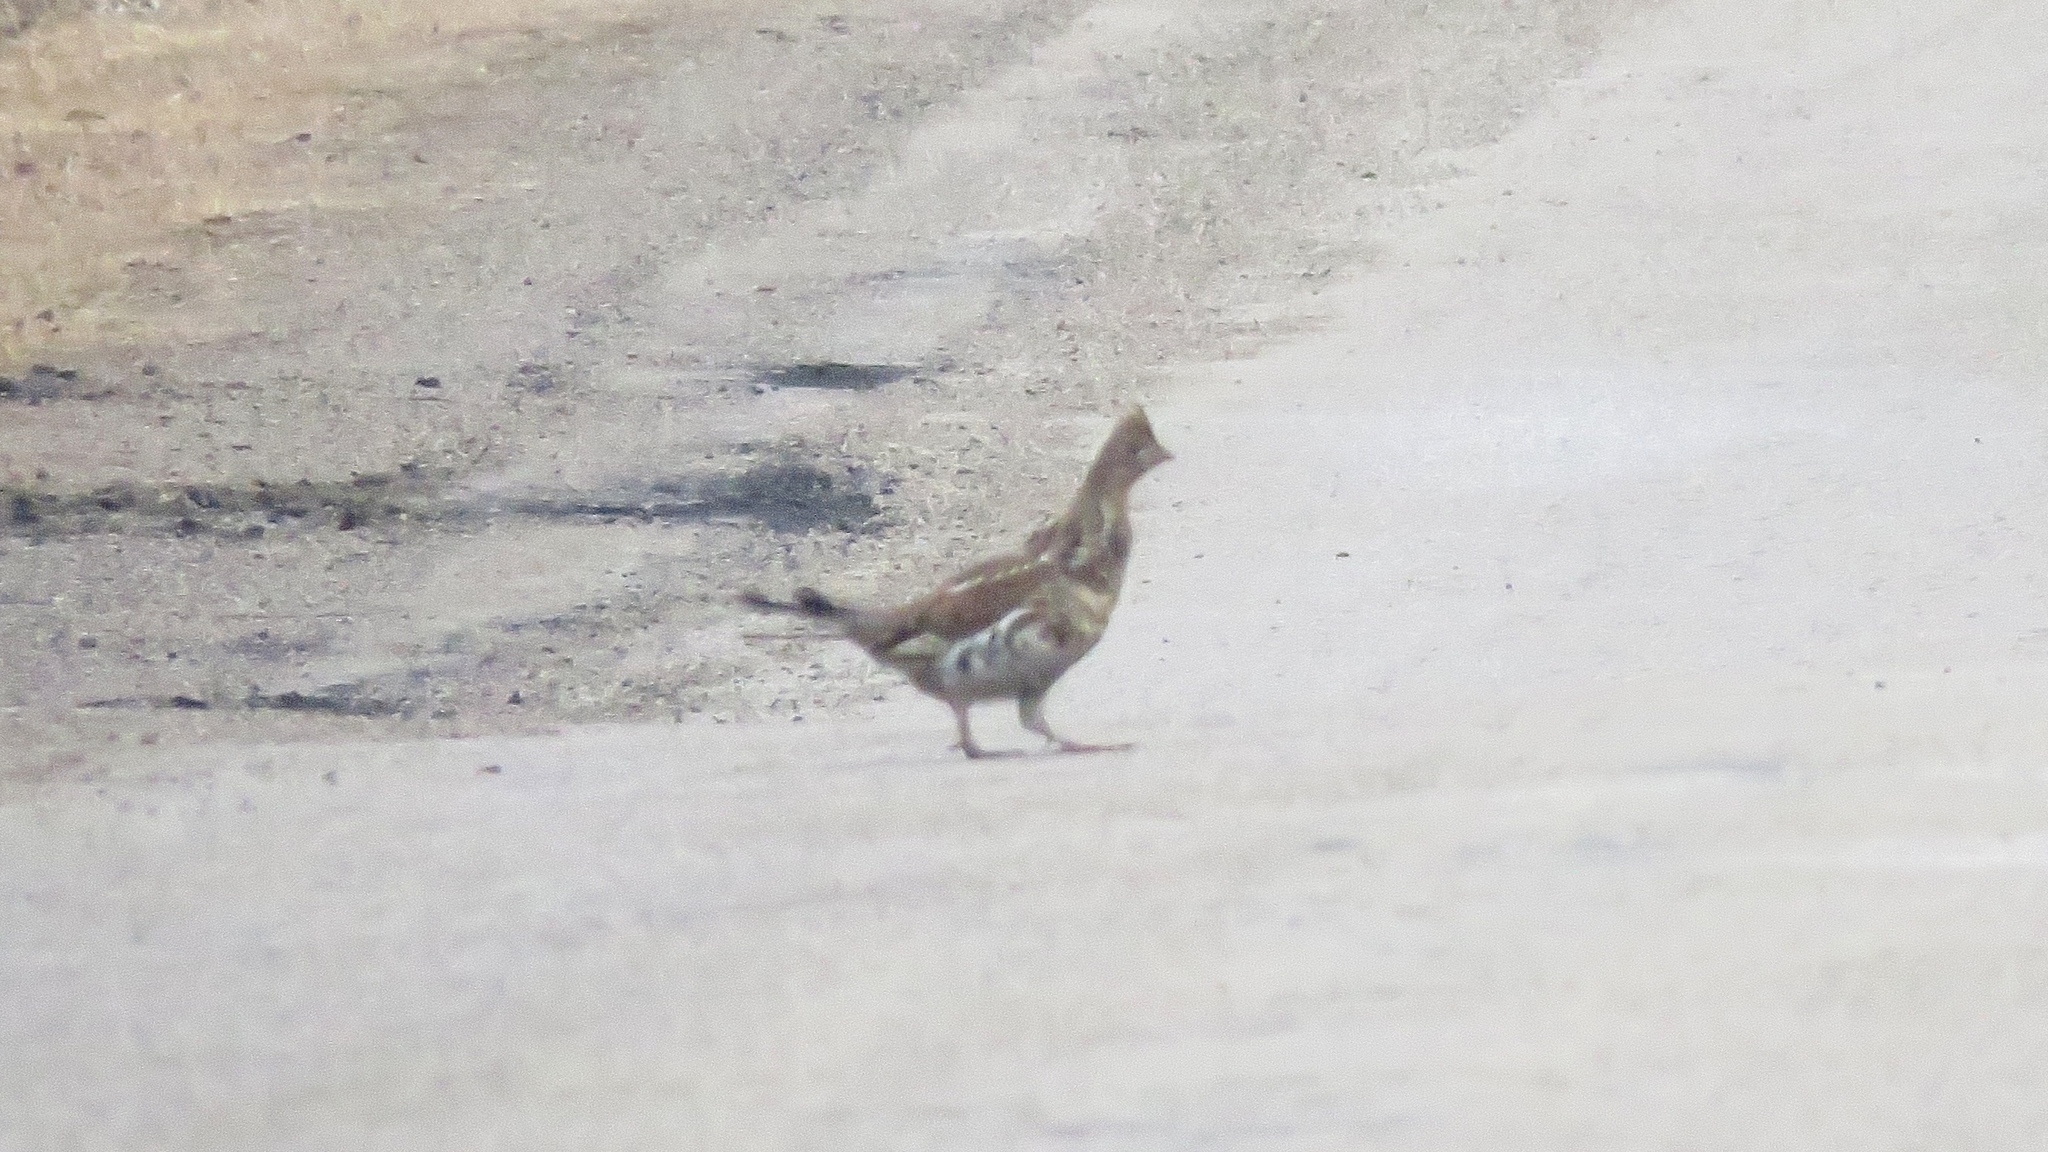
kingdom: Animalia
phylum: Chordata
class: Aves
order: Galliformes
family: Phasianidae
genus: Bonasa
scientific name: Bonasa umbellus
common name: Ruffed grouse
